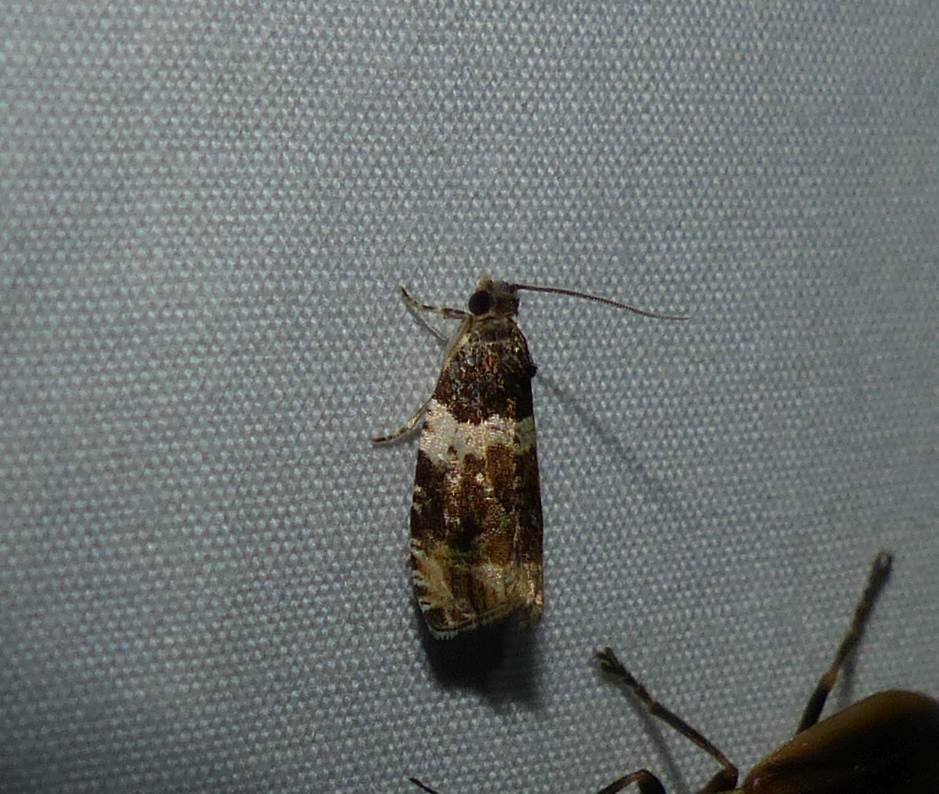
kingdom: Animalia
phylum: Arthropoda
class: Insecta
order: Lepidoptera
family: Tortricidae
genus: Olethreutes
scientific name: Olethreutes fasciatana
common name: Banded olethreutes moth
